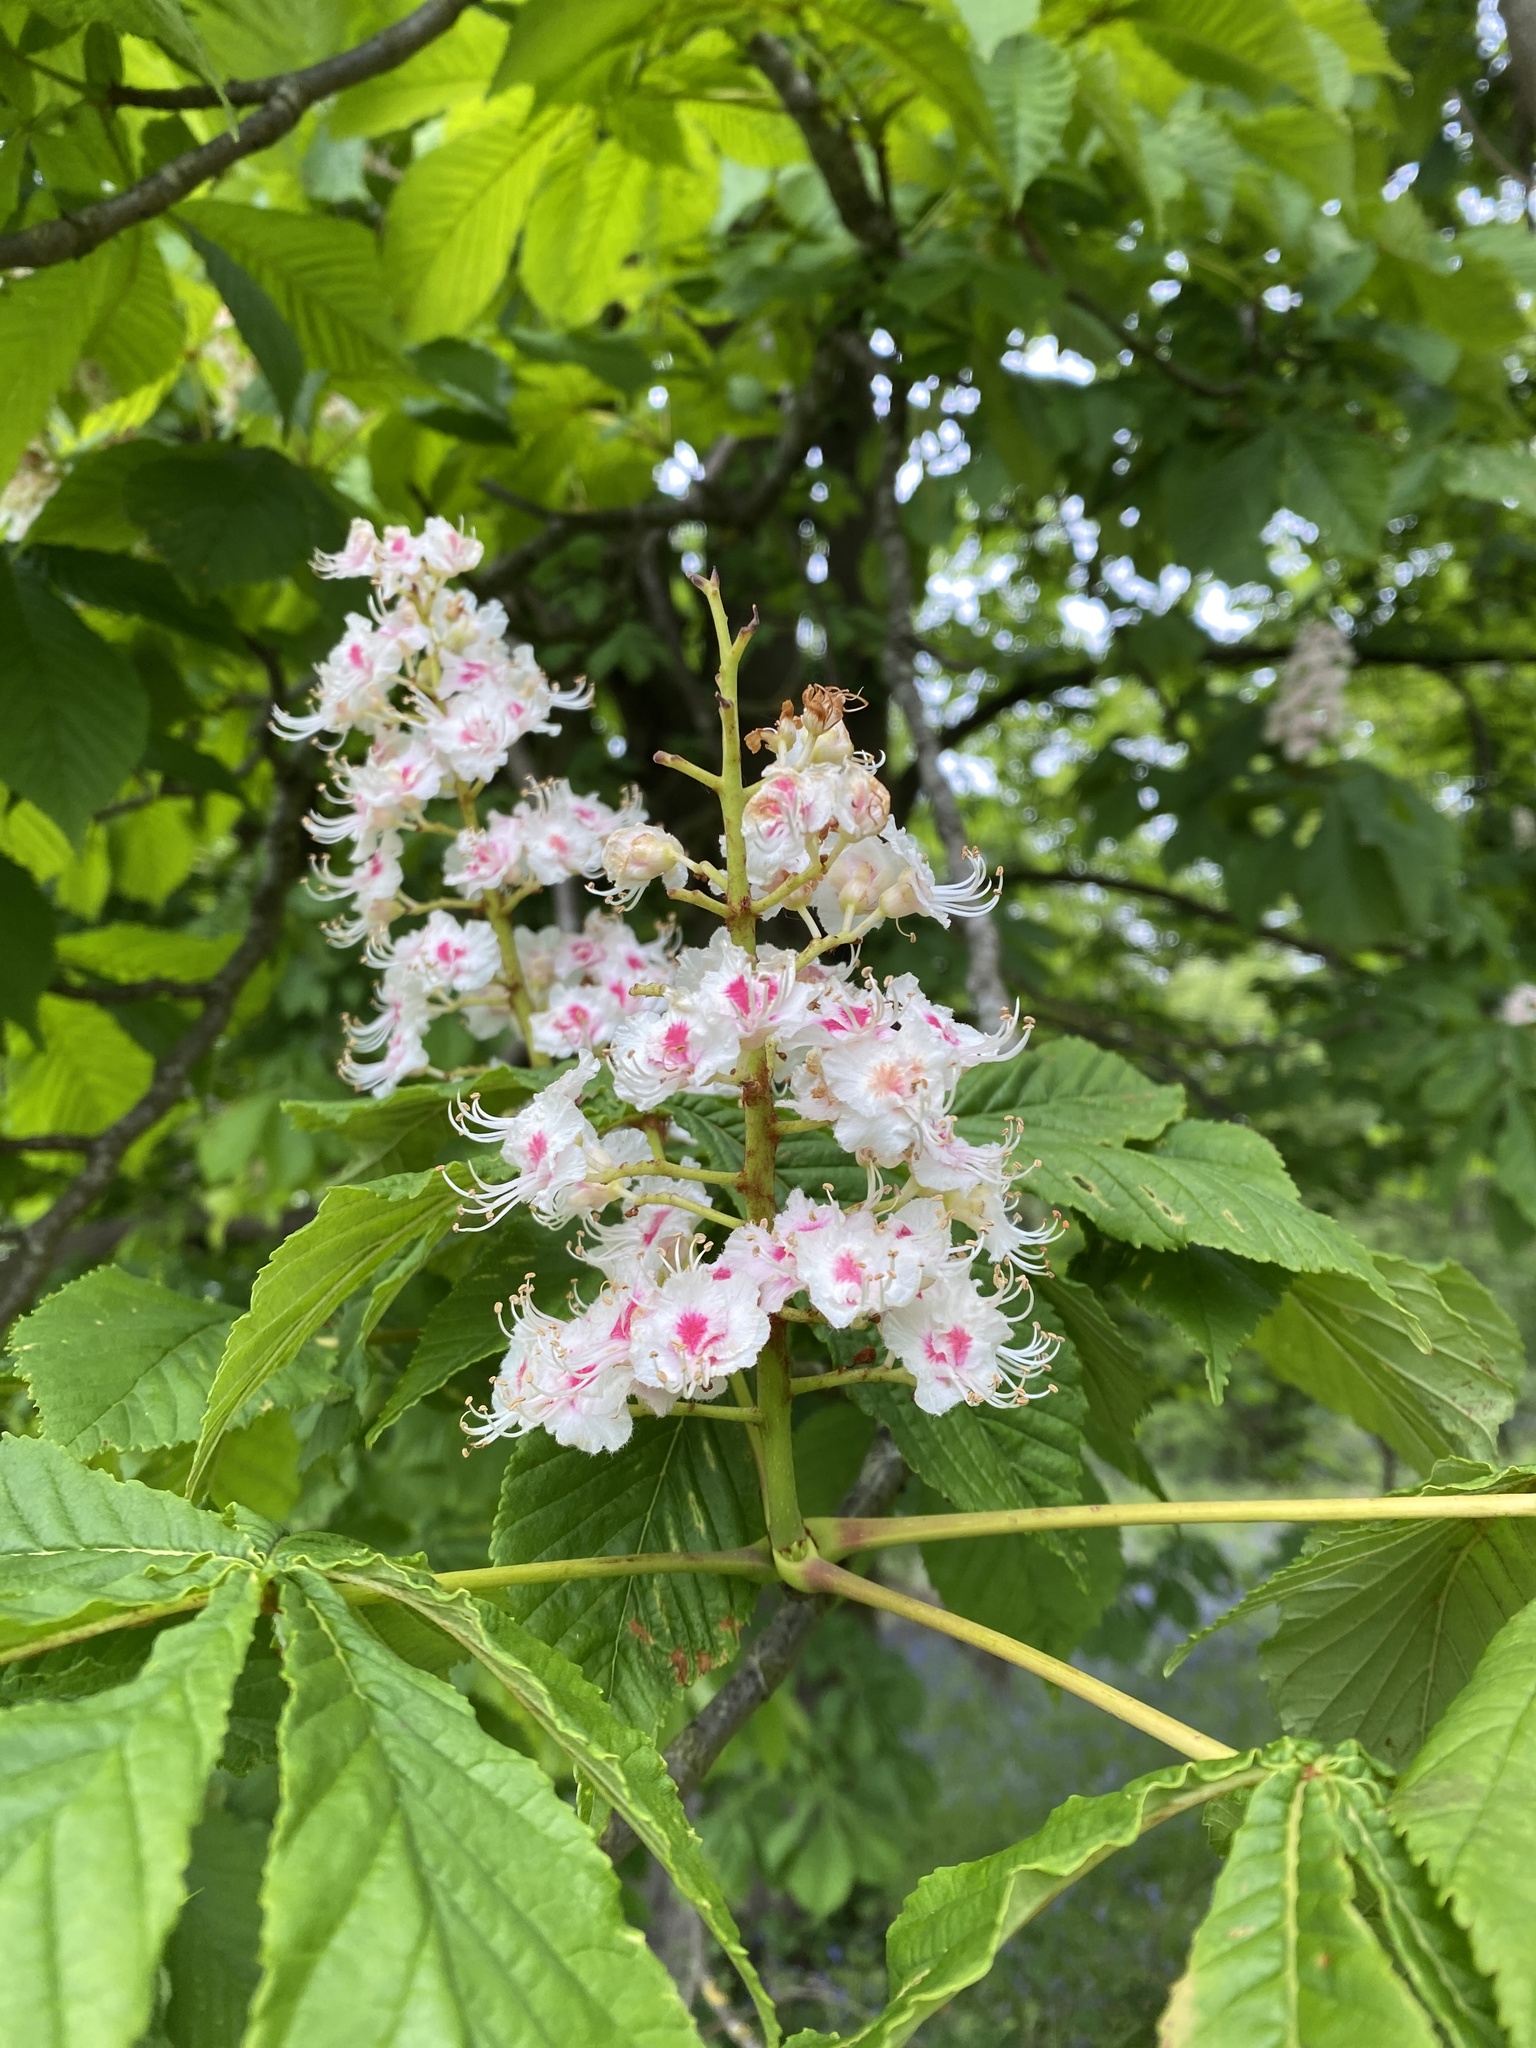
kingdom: Plantae
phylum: Tracheophyta
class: Magnoliopsida
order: Sapindales
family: Sapindaceae
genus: Aesculus
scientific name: Aesculus hippocastanum
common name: Horse-chestnut
